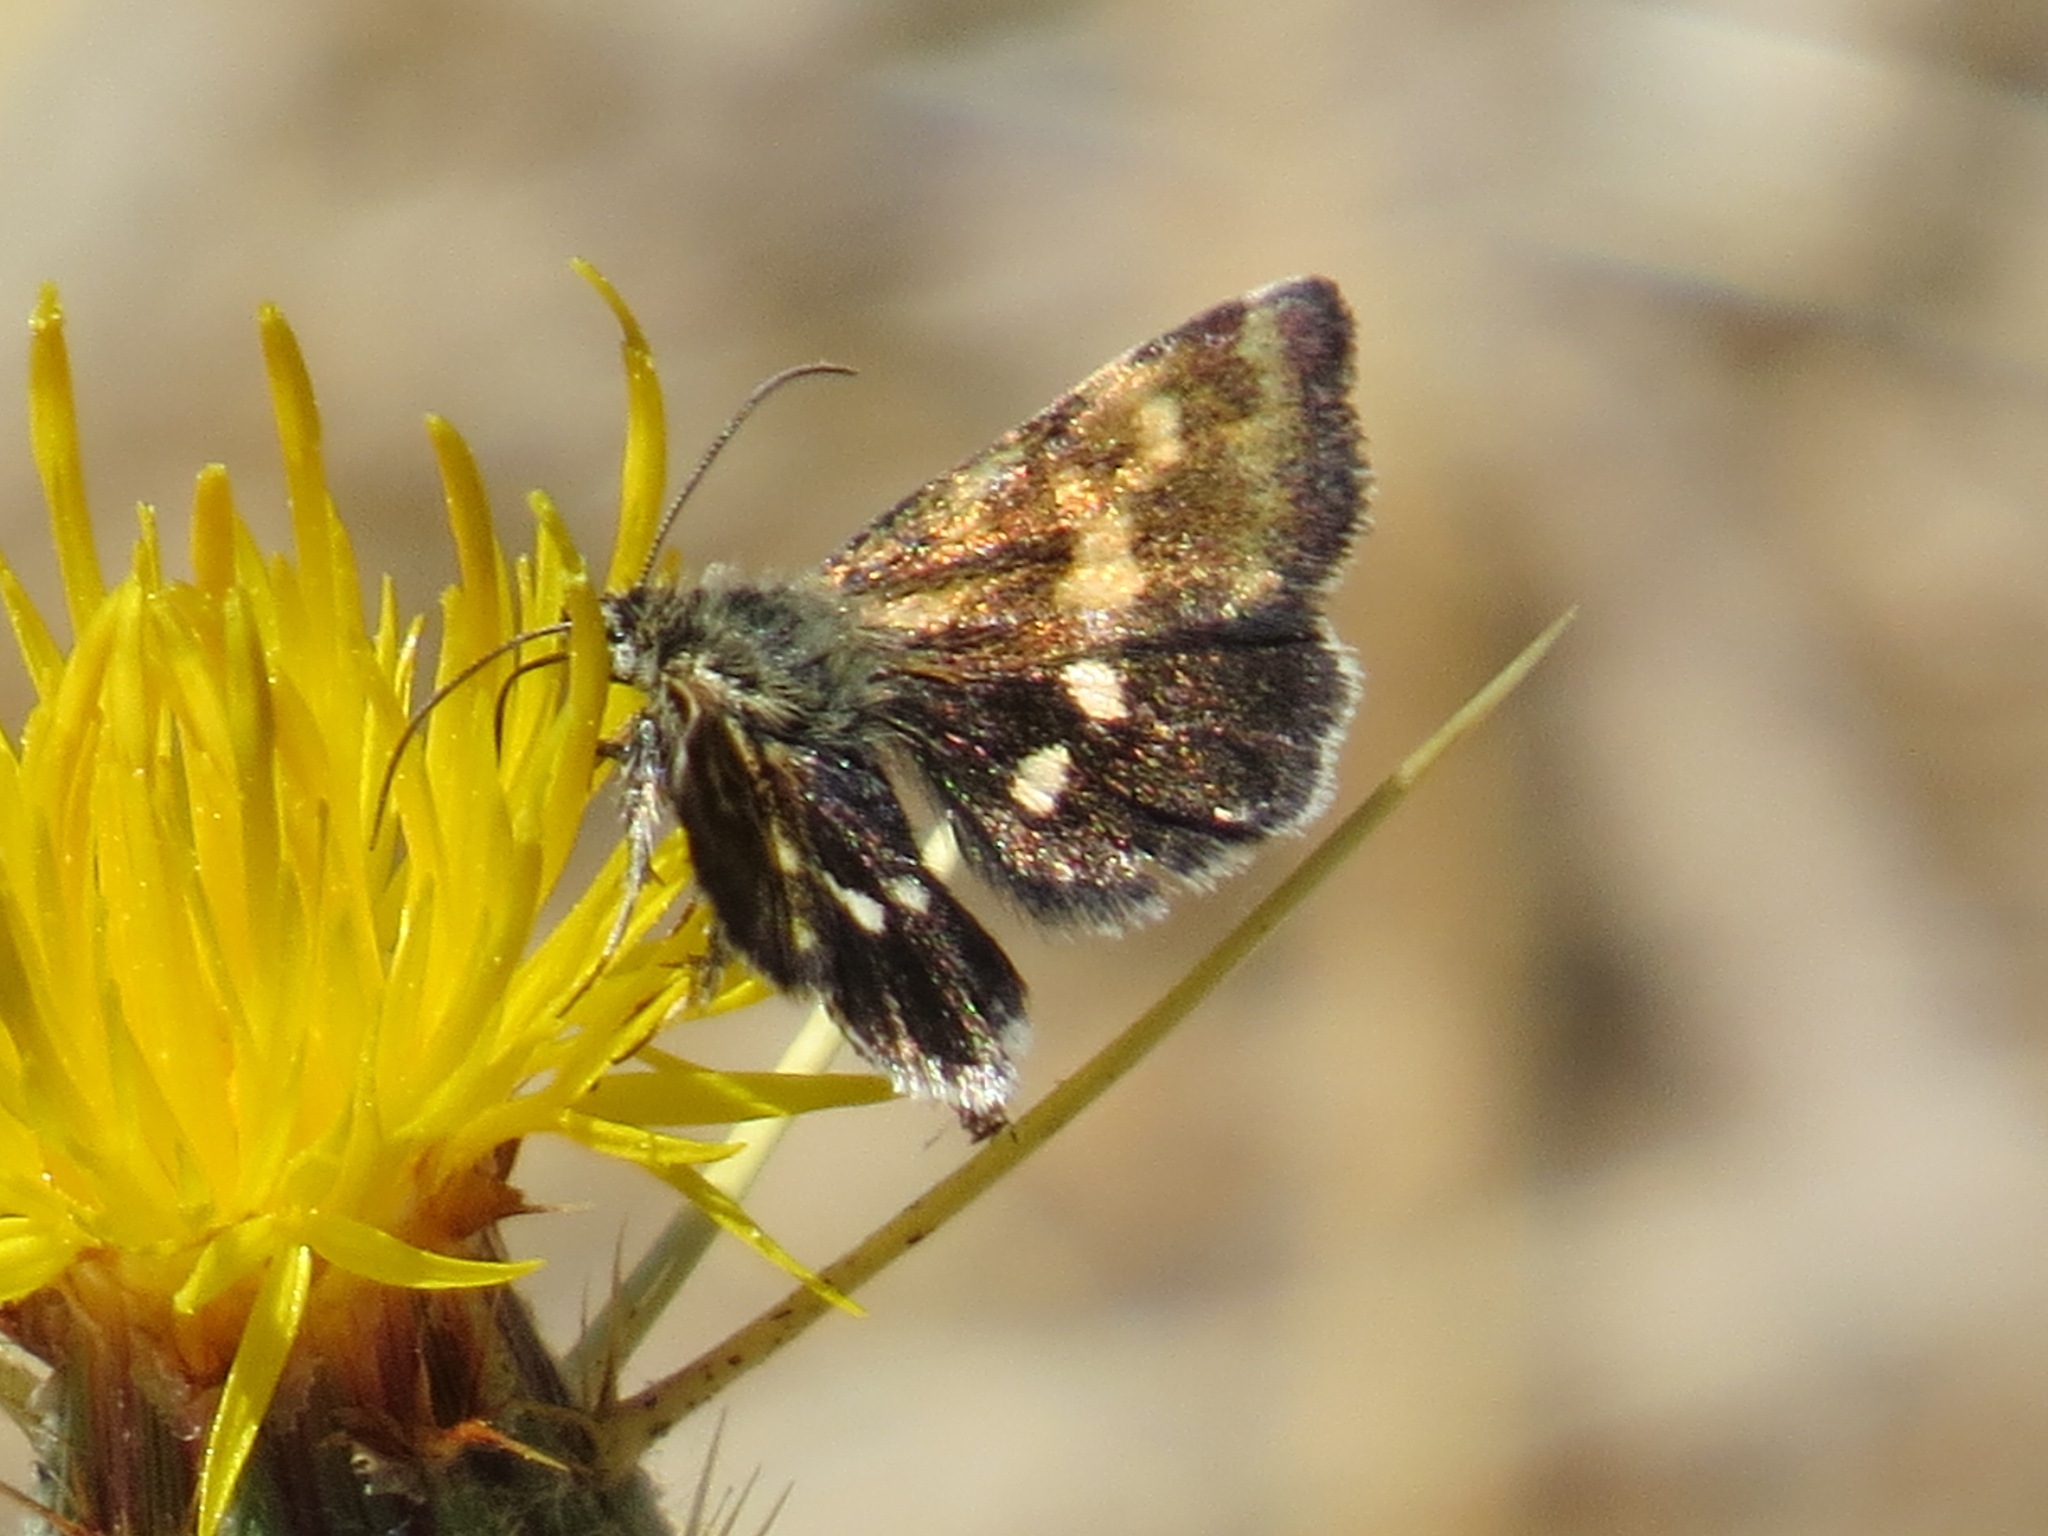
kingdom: Animalia
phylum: Arthropoda
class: Insecta
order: Lepidoptera
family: Noctuidae
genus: Heliothodes
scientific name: Heliothodes diminutiva
